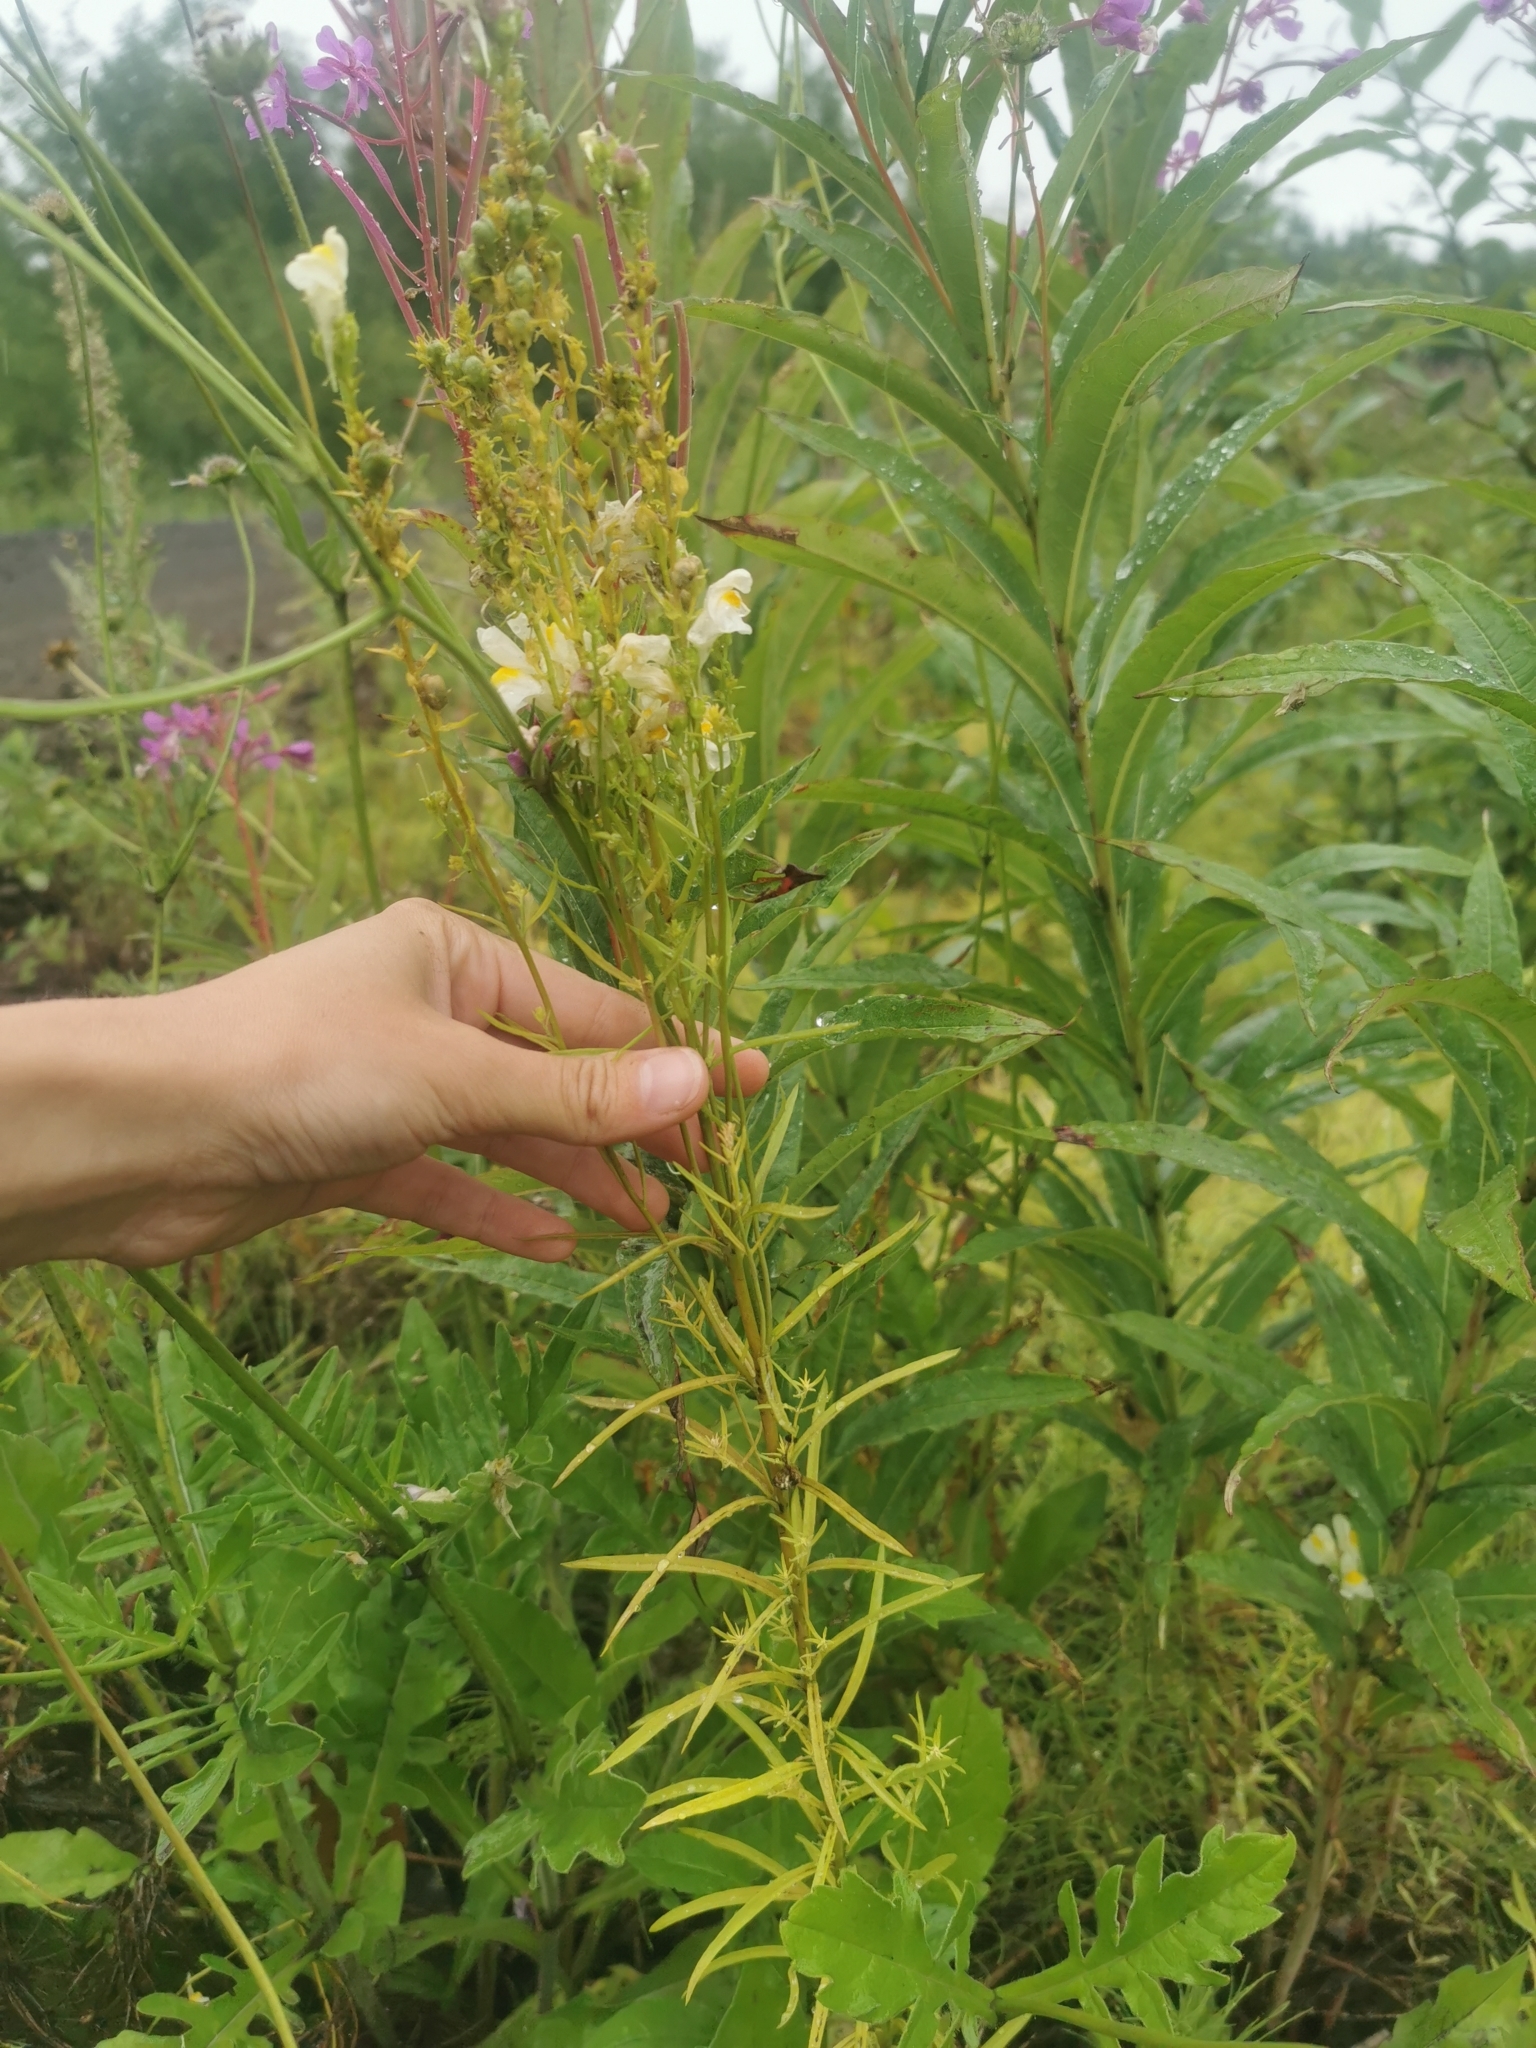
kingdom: Plantae
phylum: Tracheophyta
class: Magnoliopsida
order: Lamiales
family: Plantaginaceae
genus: Linaria
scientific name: Linaria vulgaris
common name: Butter and eggs
